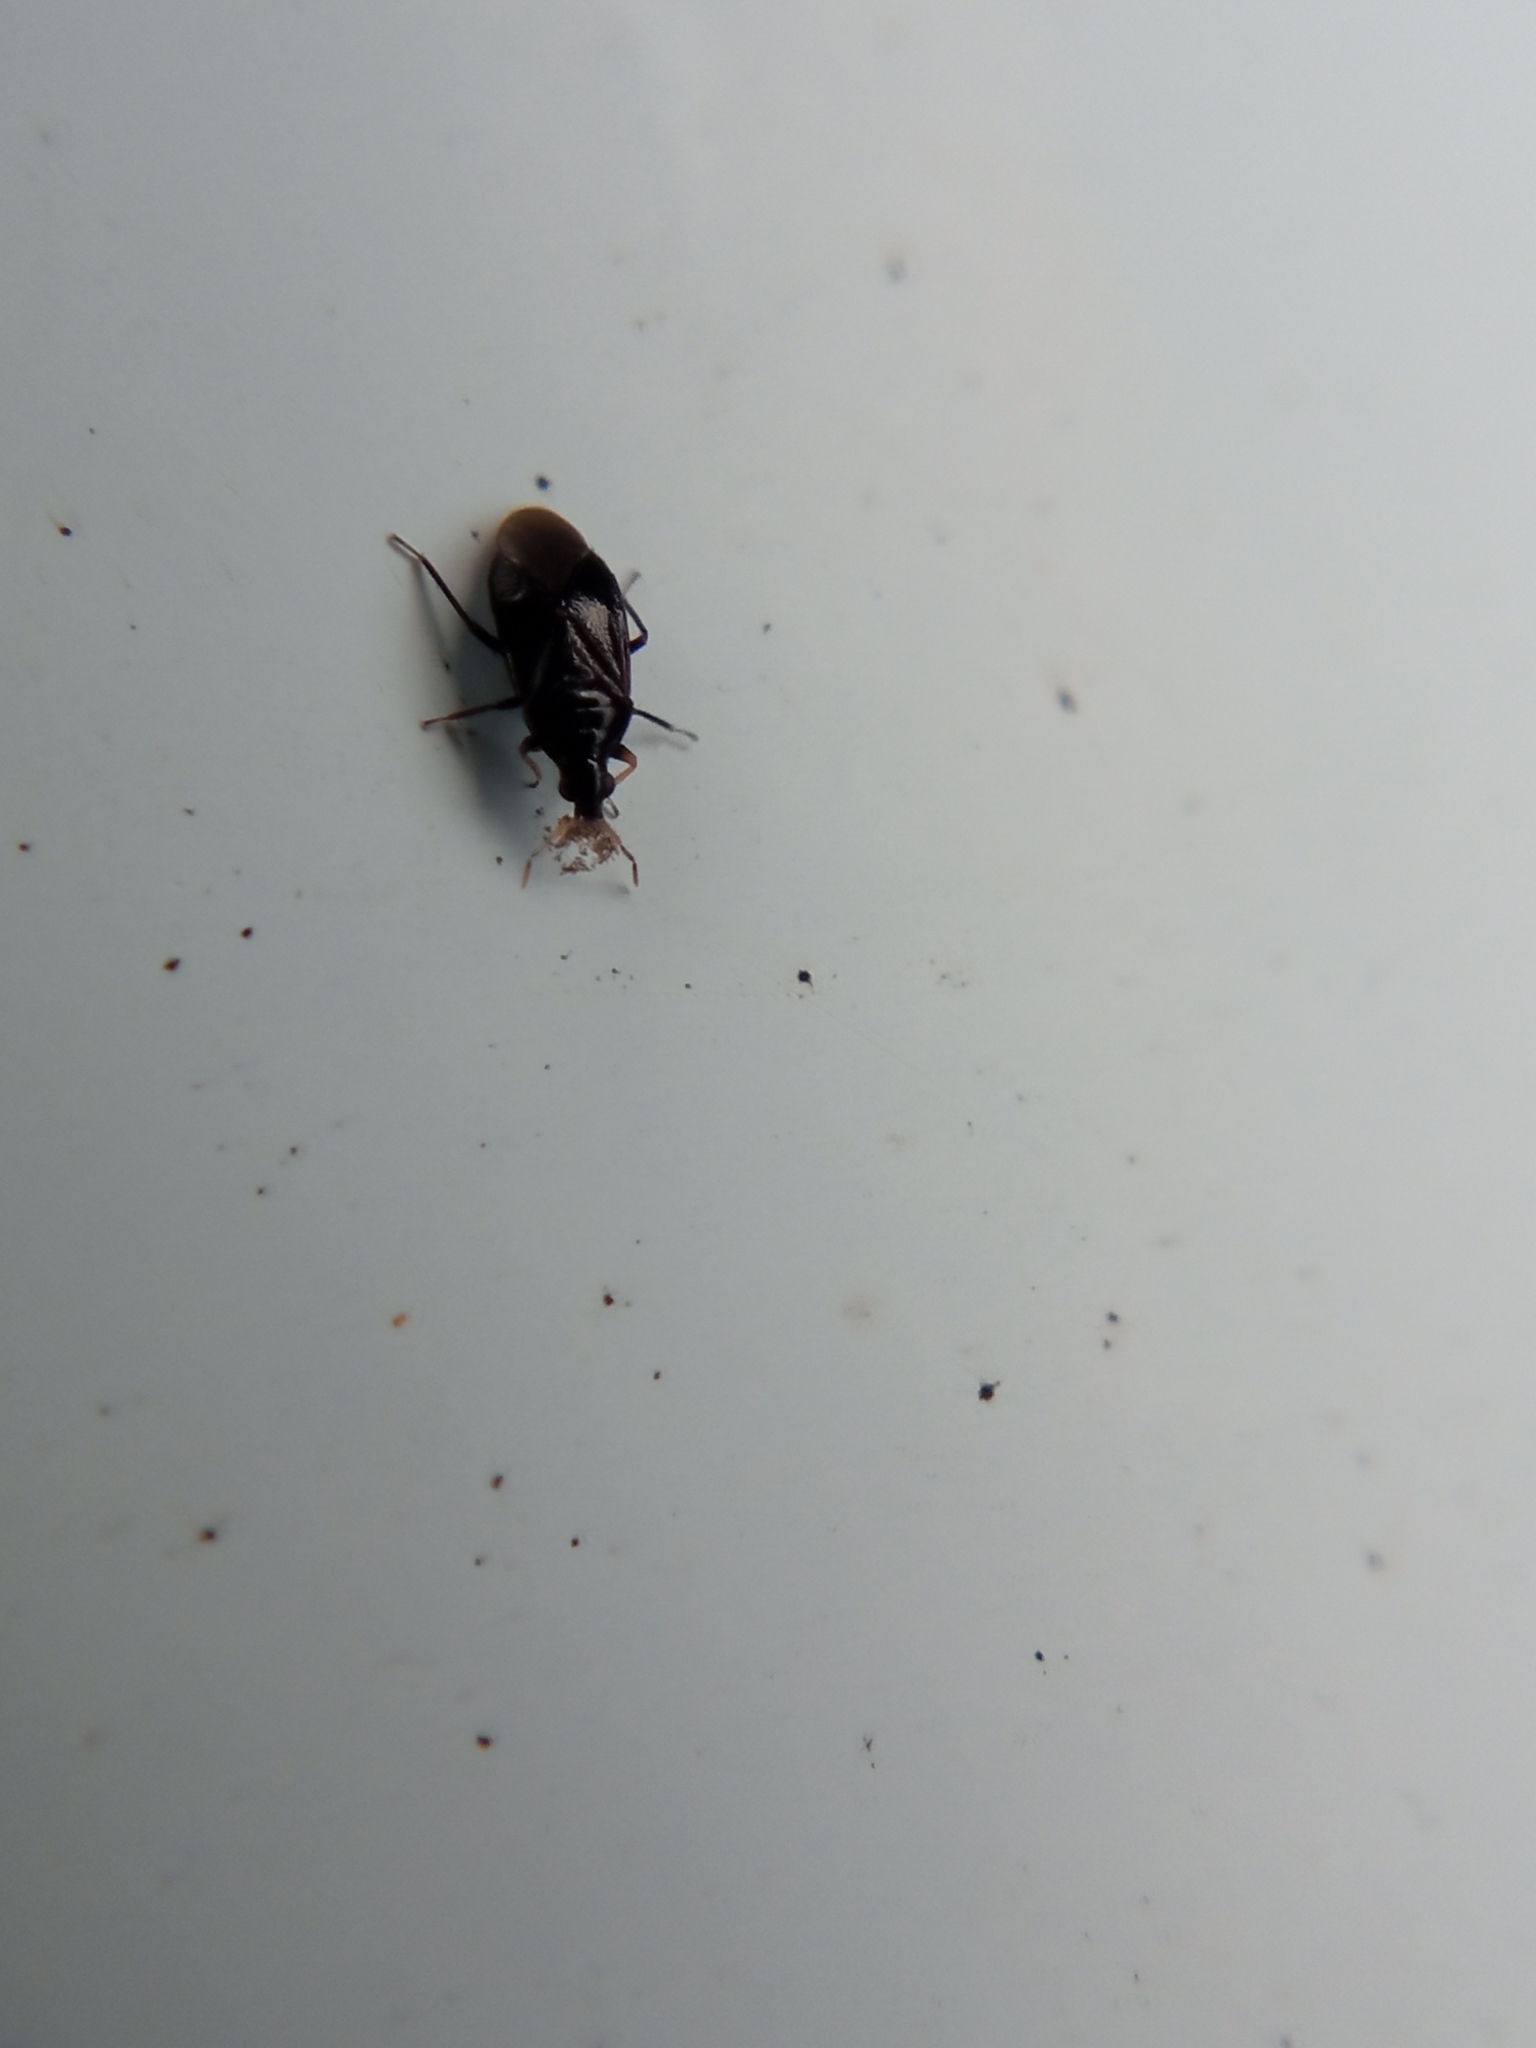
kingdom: Animalia
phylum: Arthropoda
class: Insecta
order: Hemiptera
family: Anthocoridae
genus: Orius
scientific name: Orius niger
